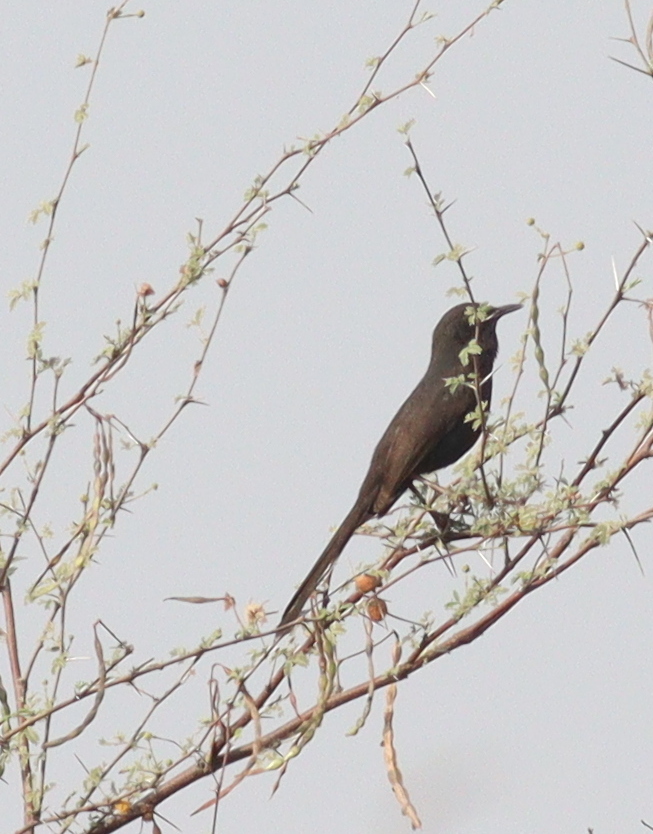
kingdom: Animalia
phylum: Chordata
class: Aves
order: Passeriformes
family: Muscicapidae
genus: Cercotrichas
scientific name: Cercotrichas podobe
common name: Black scrub robin
